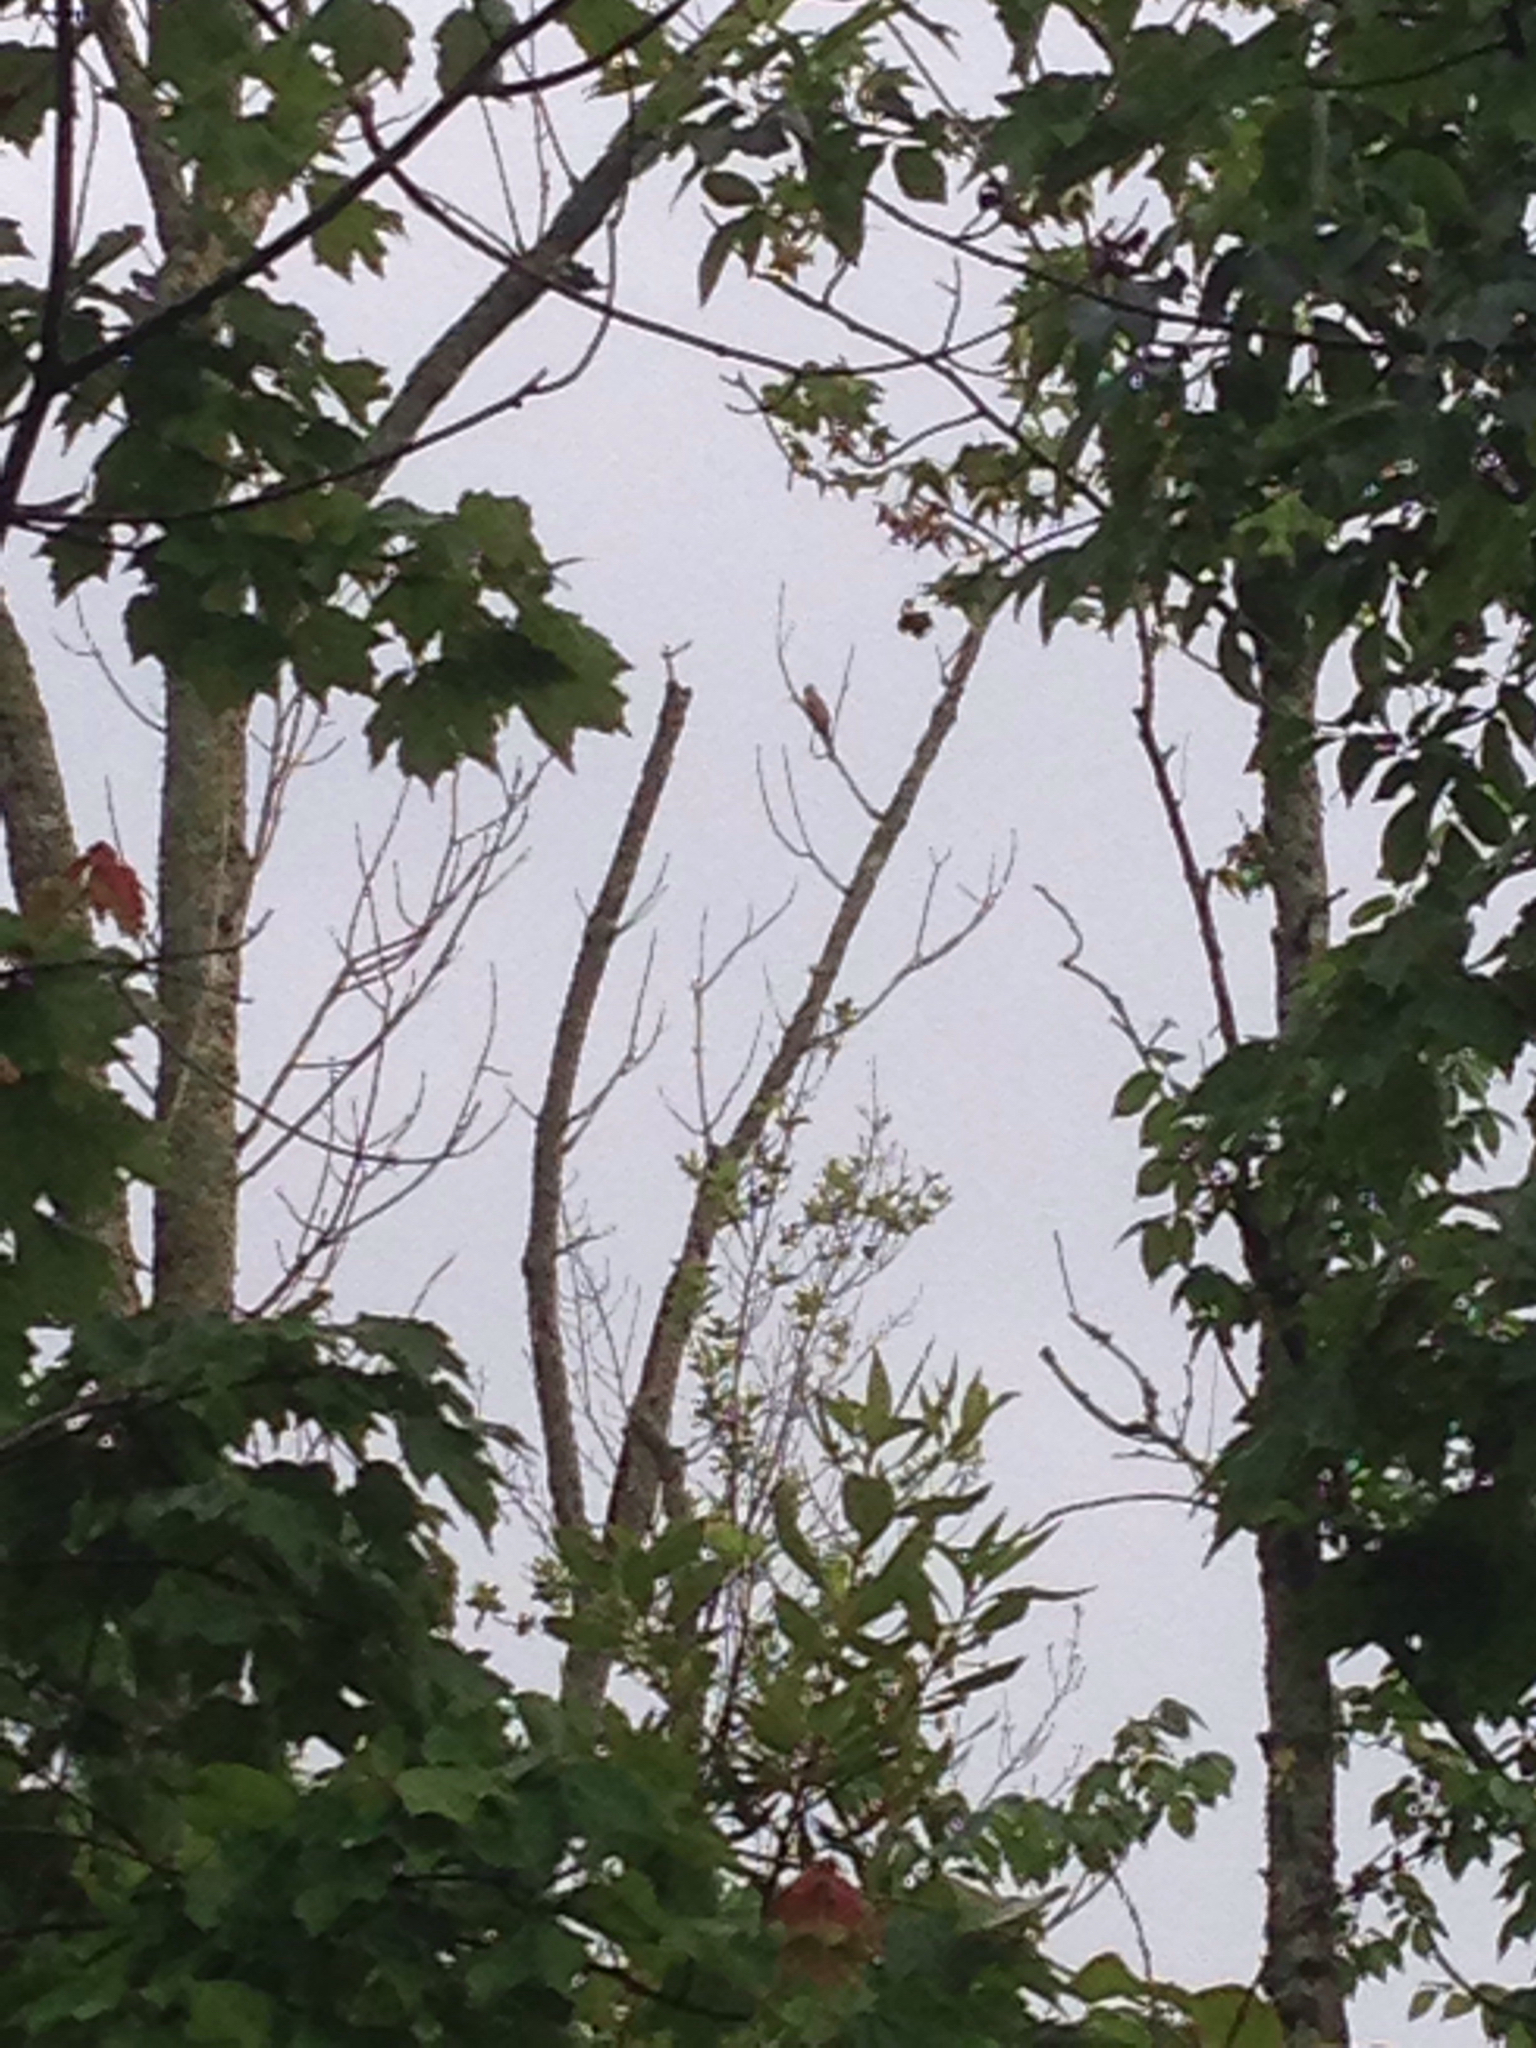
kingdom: Animalia
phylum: Chordata
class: Aves
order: Cuculiformes
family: Cuculidae
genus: Coccyzus
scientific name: Coccyzus americanus
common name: Yellow-billed cuckoo
